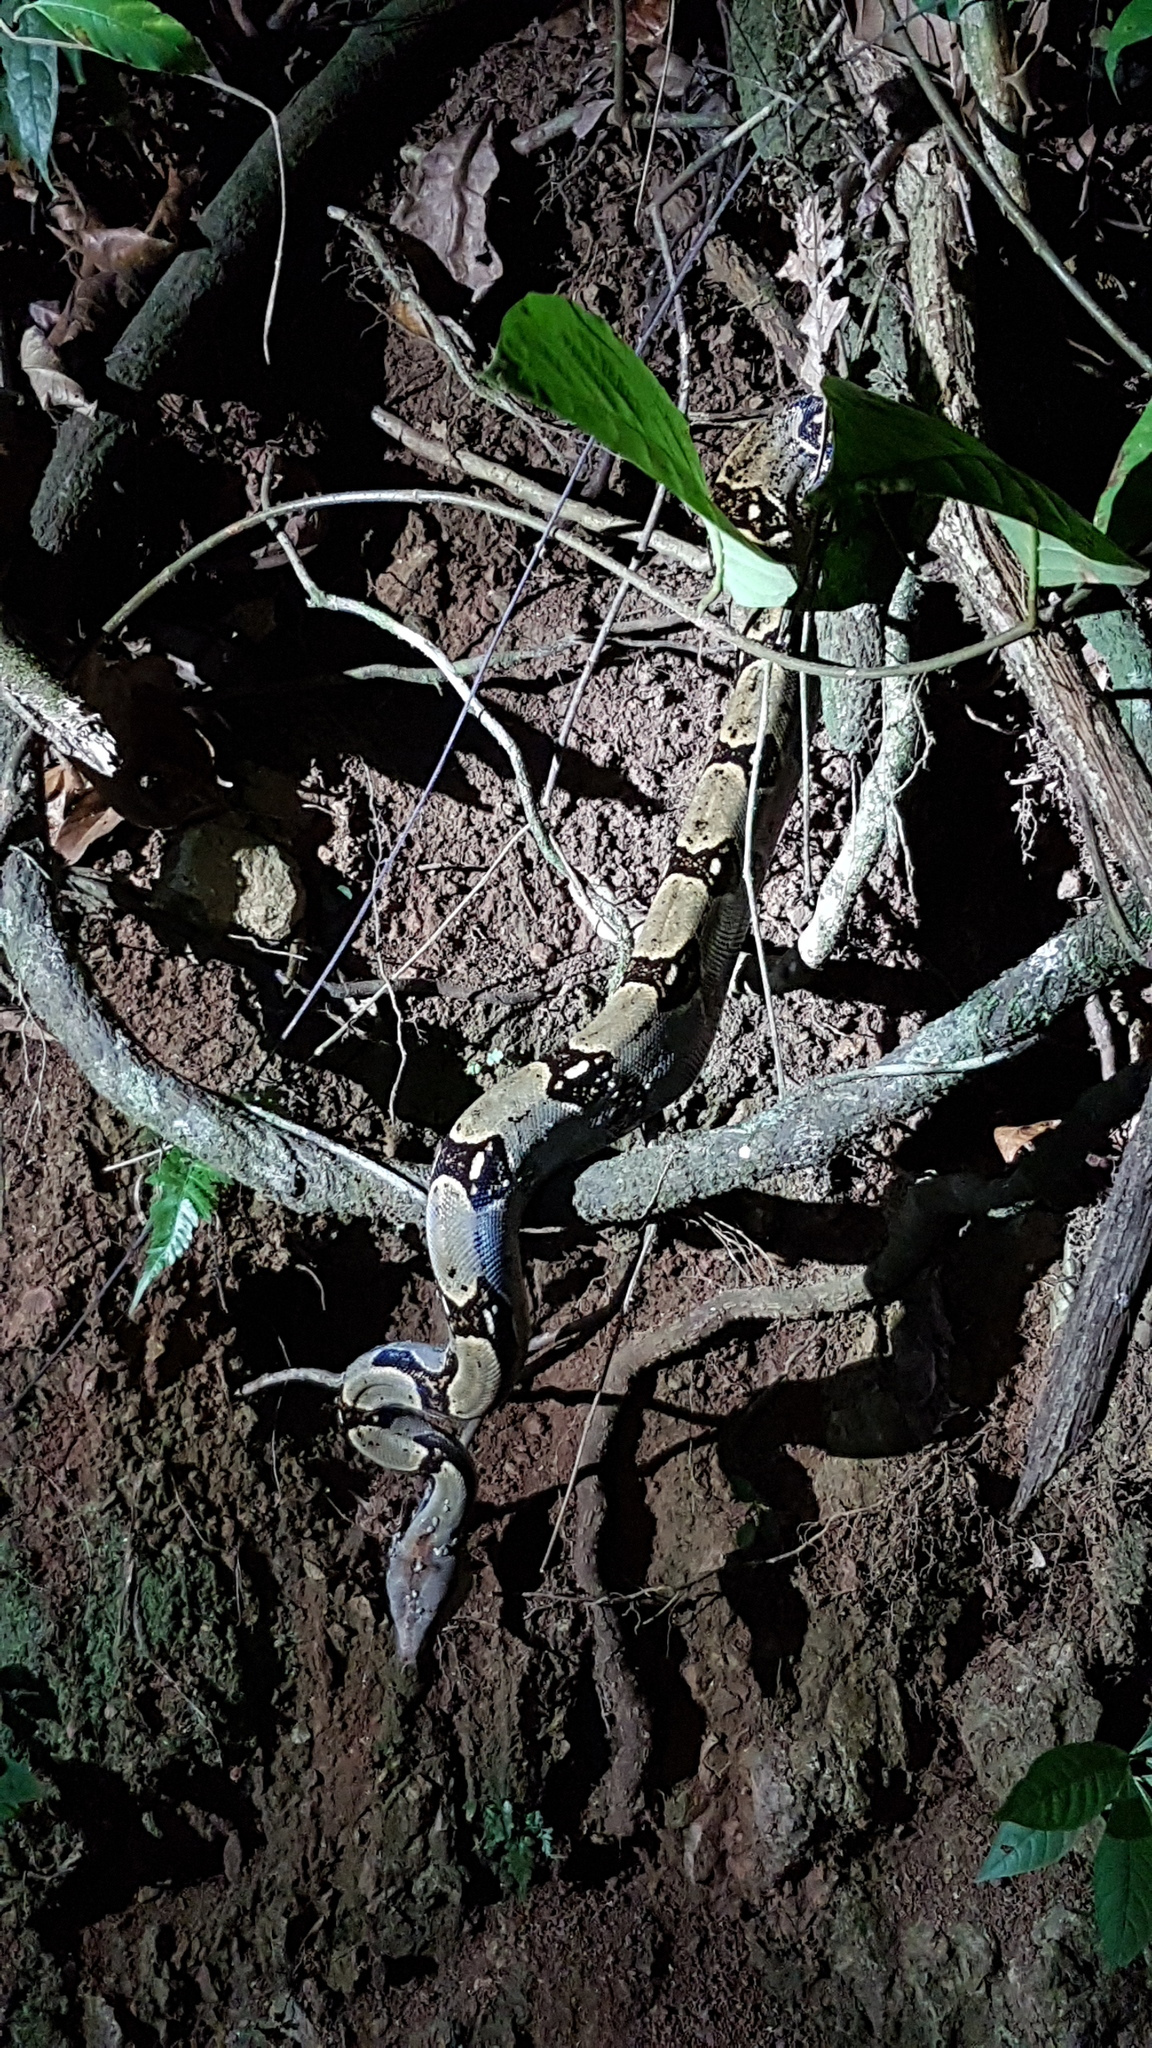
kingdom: Animalia
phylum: Chordata
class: Squamata
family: Boidae
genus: Boa
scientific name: Boa imperator
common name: Central american boa
